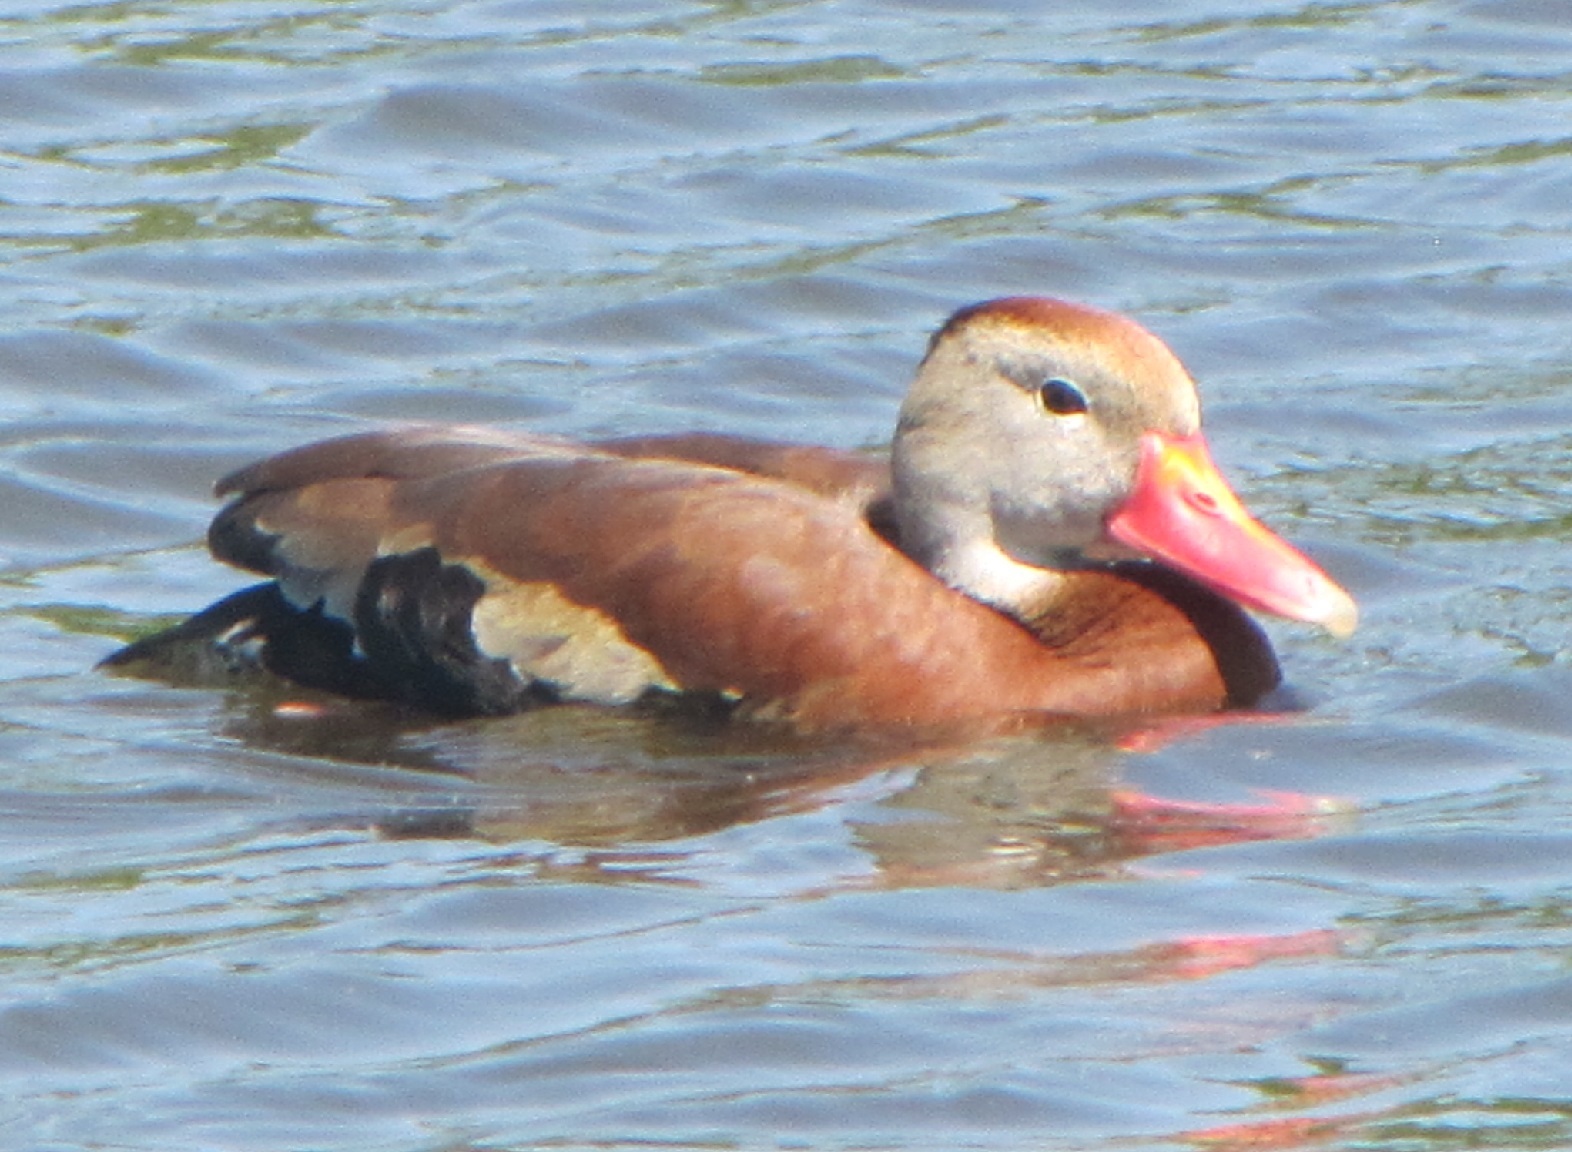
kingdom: Animalia
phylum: Chordata
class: Aves
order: Anseriformes
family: Anatidae
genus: Dendrocygna
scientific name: Dendrocygna autumnalis
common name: Black-bellied whistling duck
